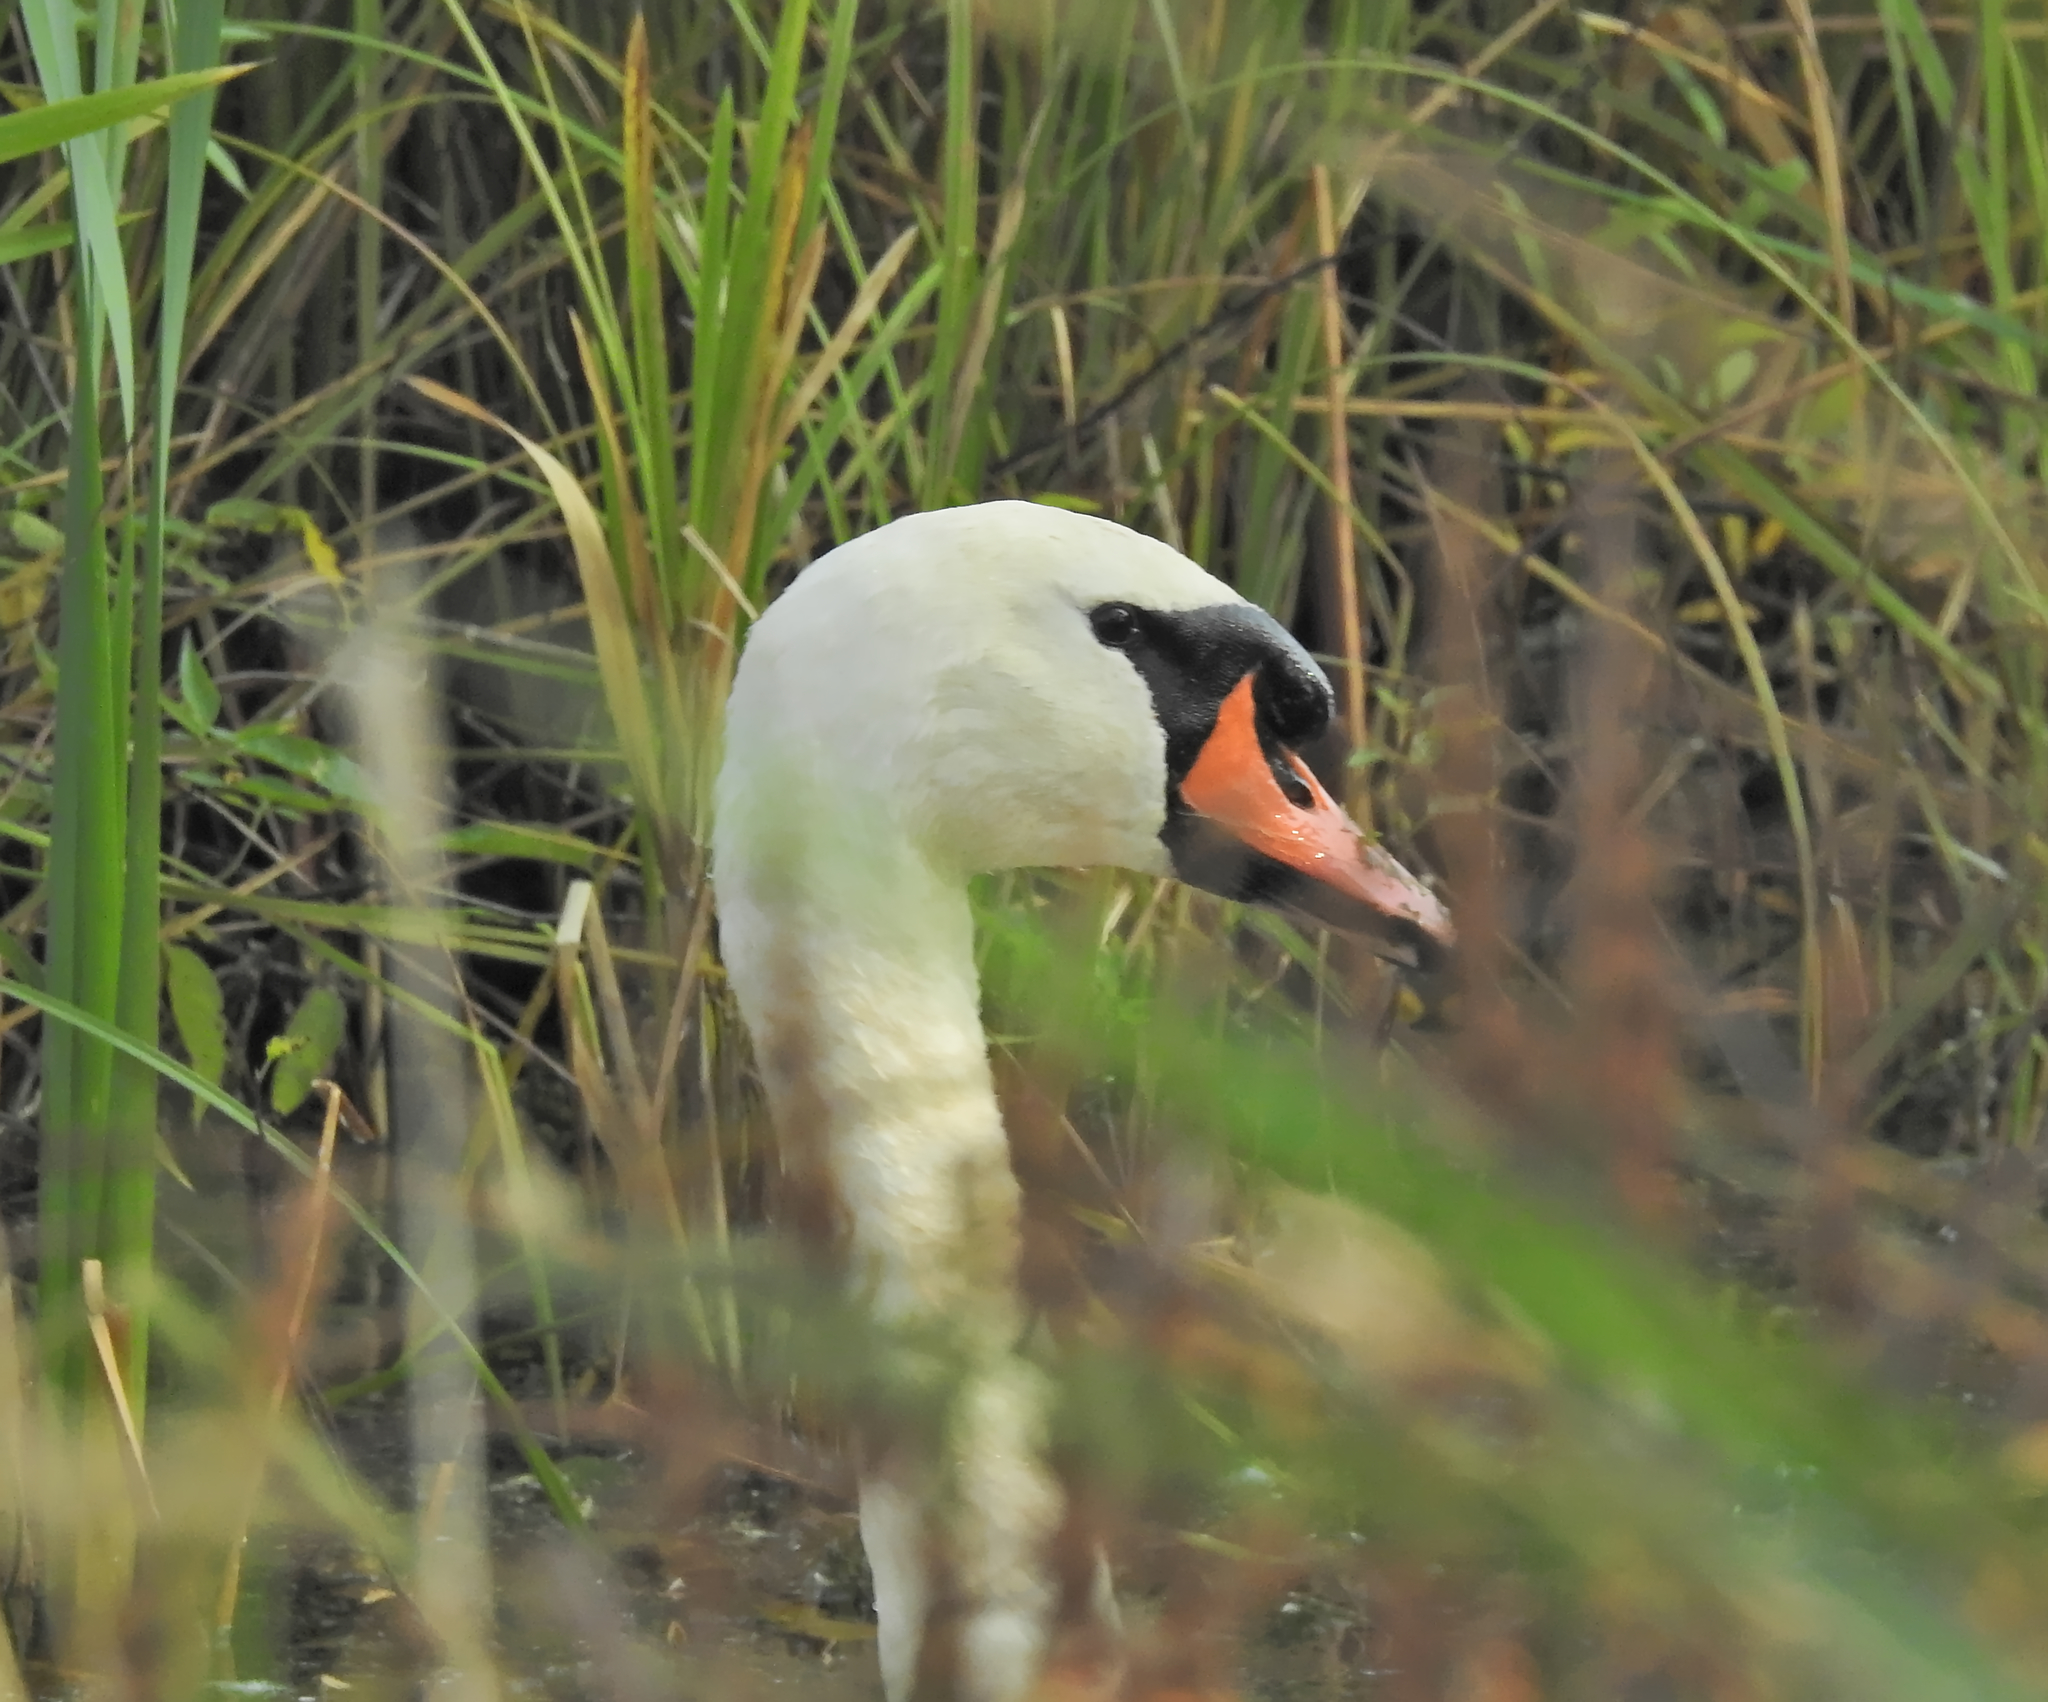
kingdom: Animalia
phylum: Chordata
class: Aves
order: Anseriformes
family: Anatidae
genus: Cygnus
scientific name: Cygnus olor
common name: Mute swan
